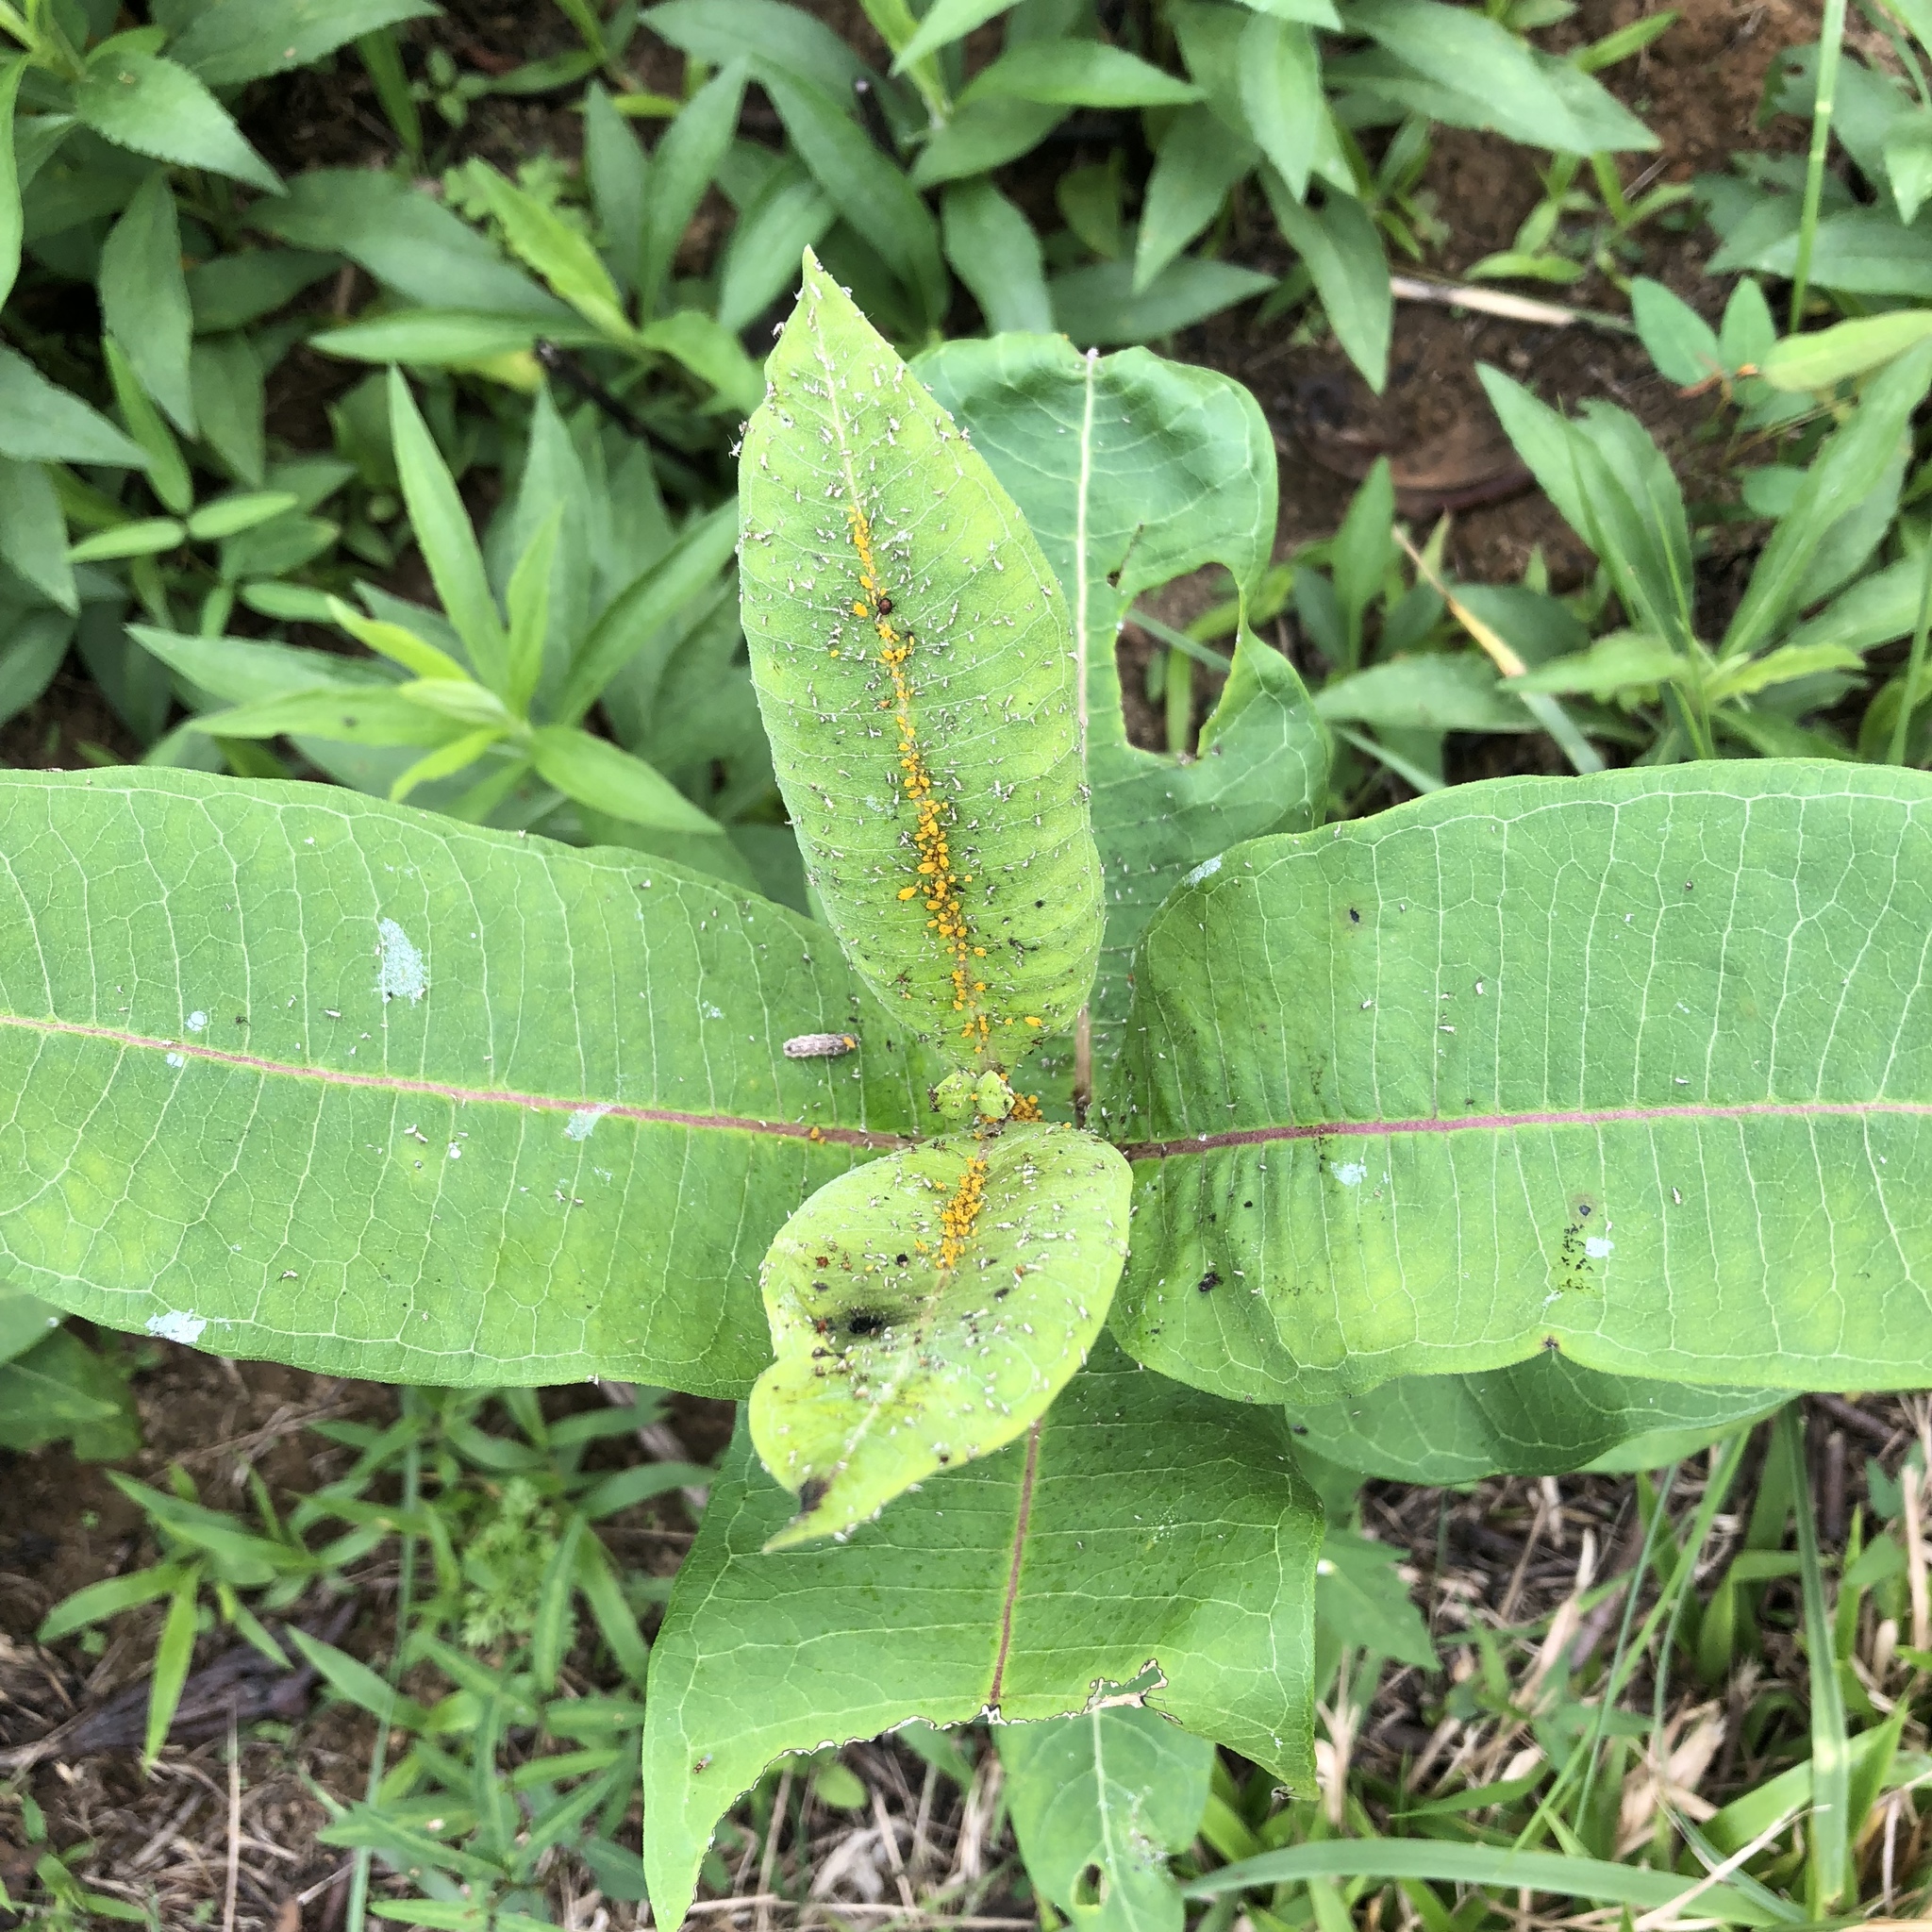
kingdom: Plantae
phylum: Tracheophyta
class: Magnoliopsida
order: Gentianales
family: Apocynaceae
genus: Asclepias
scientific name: Asclepias syriaca
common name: Common milkweed
